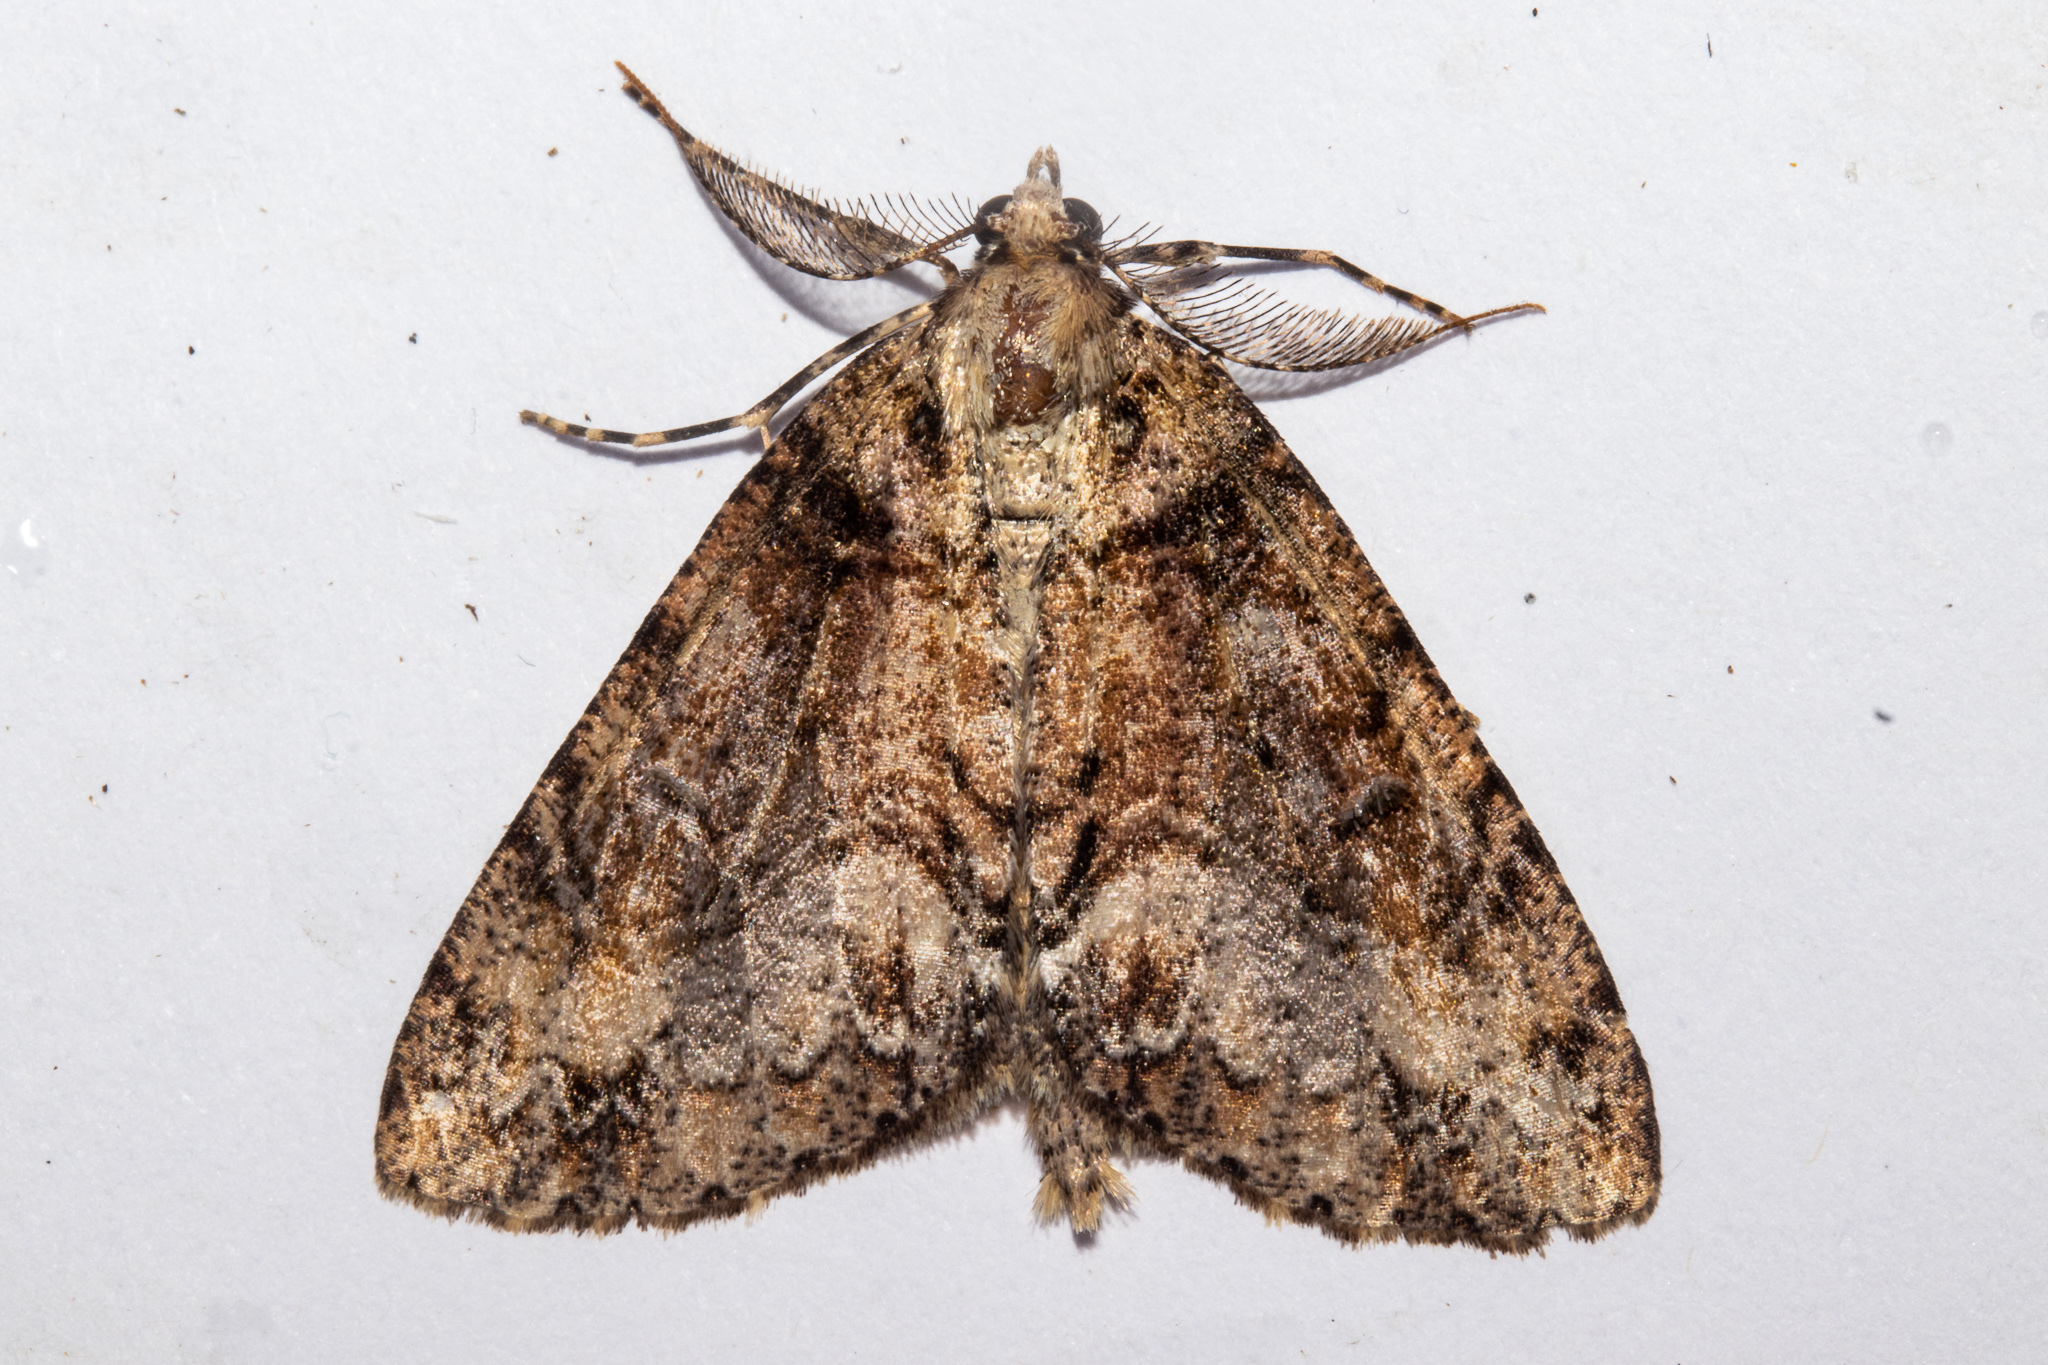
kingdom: Animalia
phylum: Arthropoda
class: Insecta
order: Lepidoptera
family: Geometridae
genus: Pseudocoremia
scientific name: Pseudocoremia suavis
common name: Common forest looper
